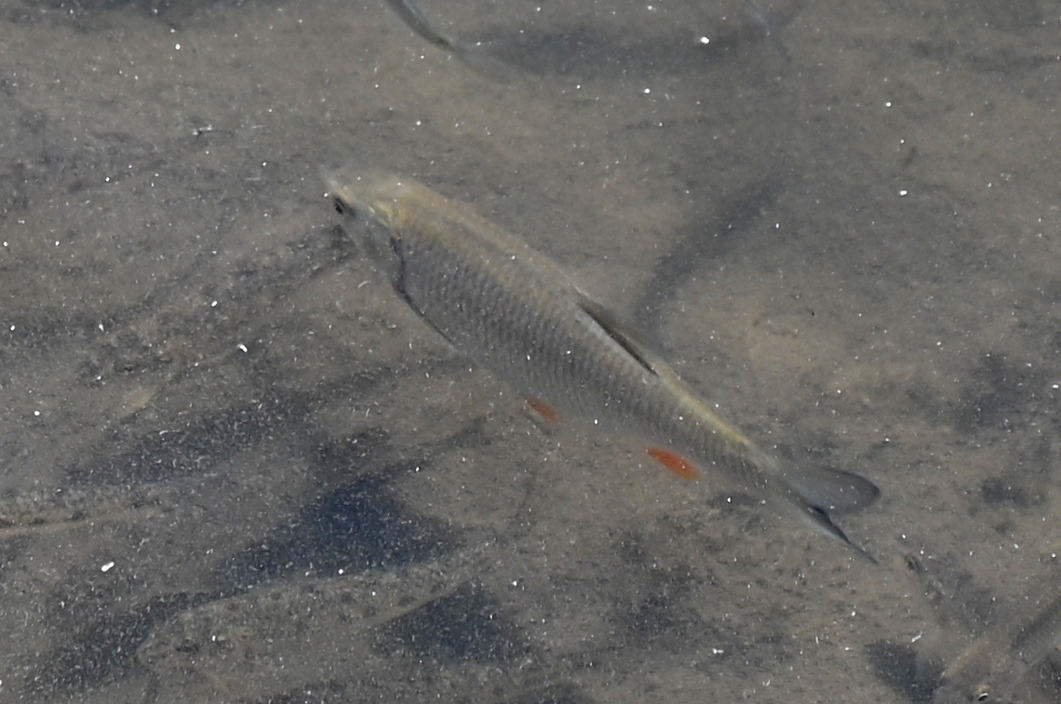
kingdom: Animalia
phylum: Chordata
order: Cypriniformes
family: Cyprinidae
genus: Squalius
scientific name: Squalius cephalus
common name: Chub
